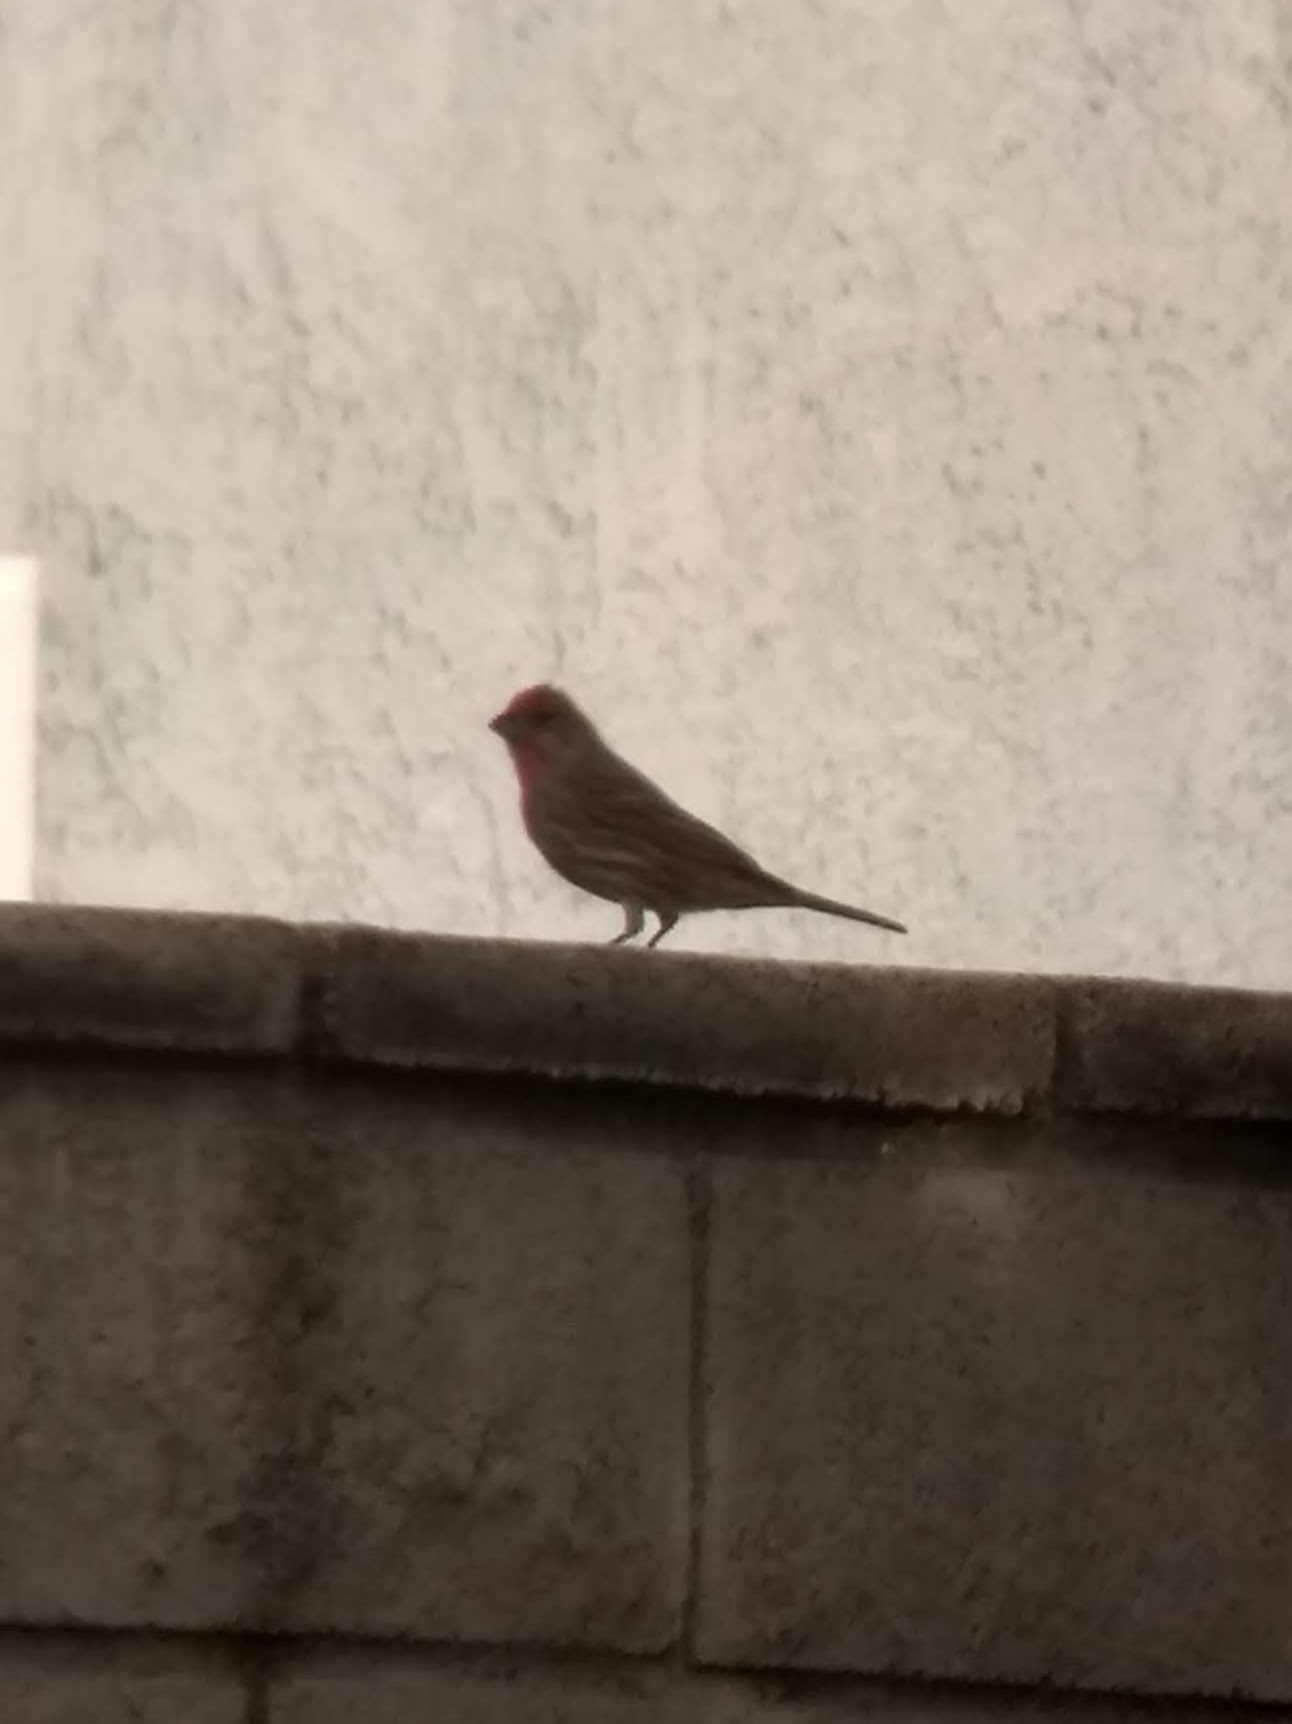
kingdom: Animalia
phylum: Chordata
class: Aves
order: Passeriformes
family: Fringillidae
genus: Haemorhous
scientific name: Haemorhous mexicanus
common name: House finch
